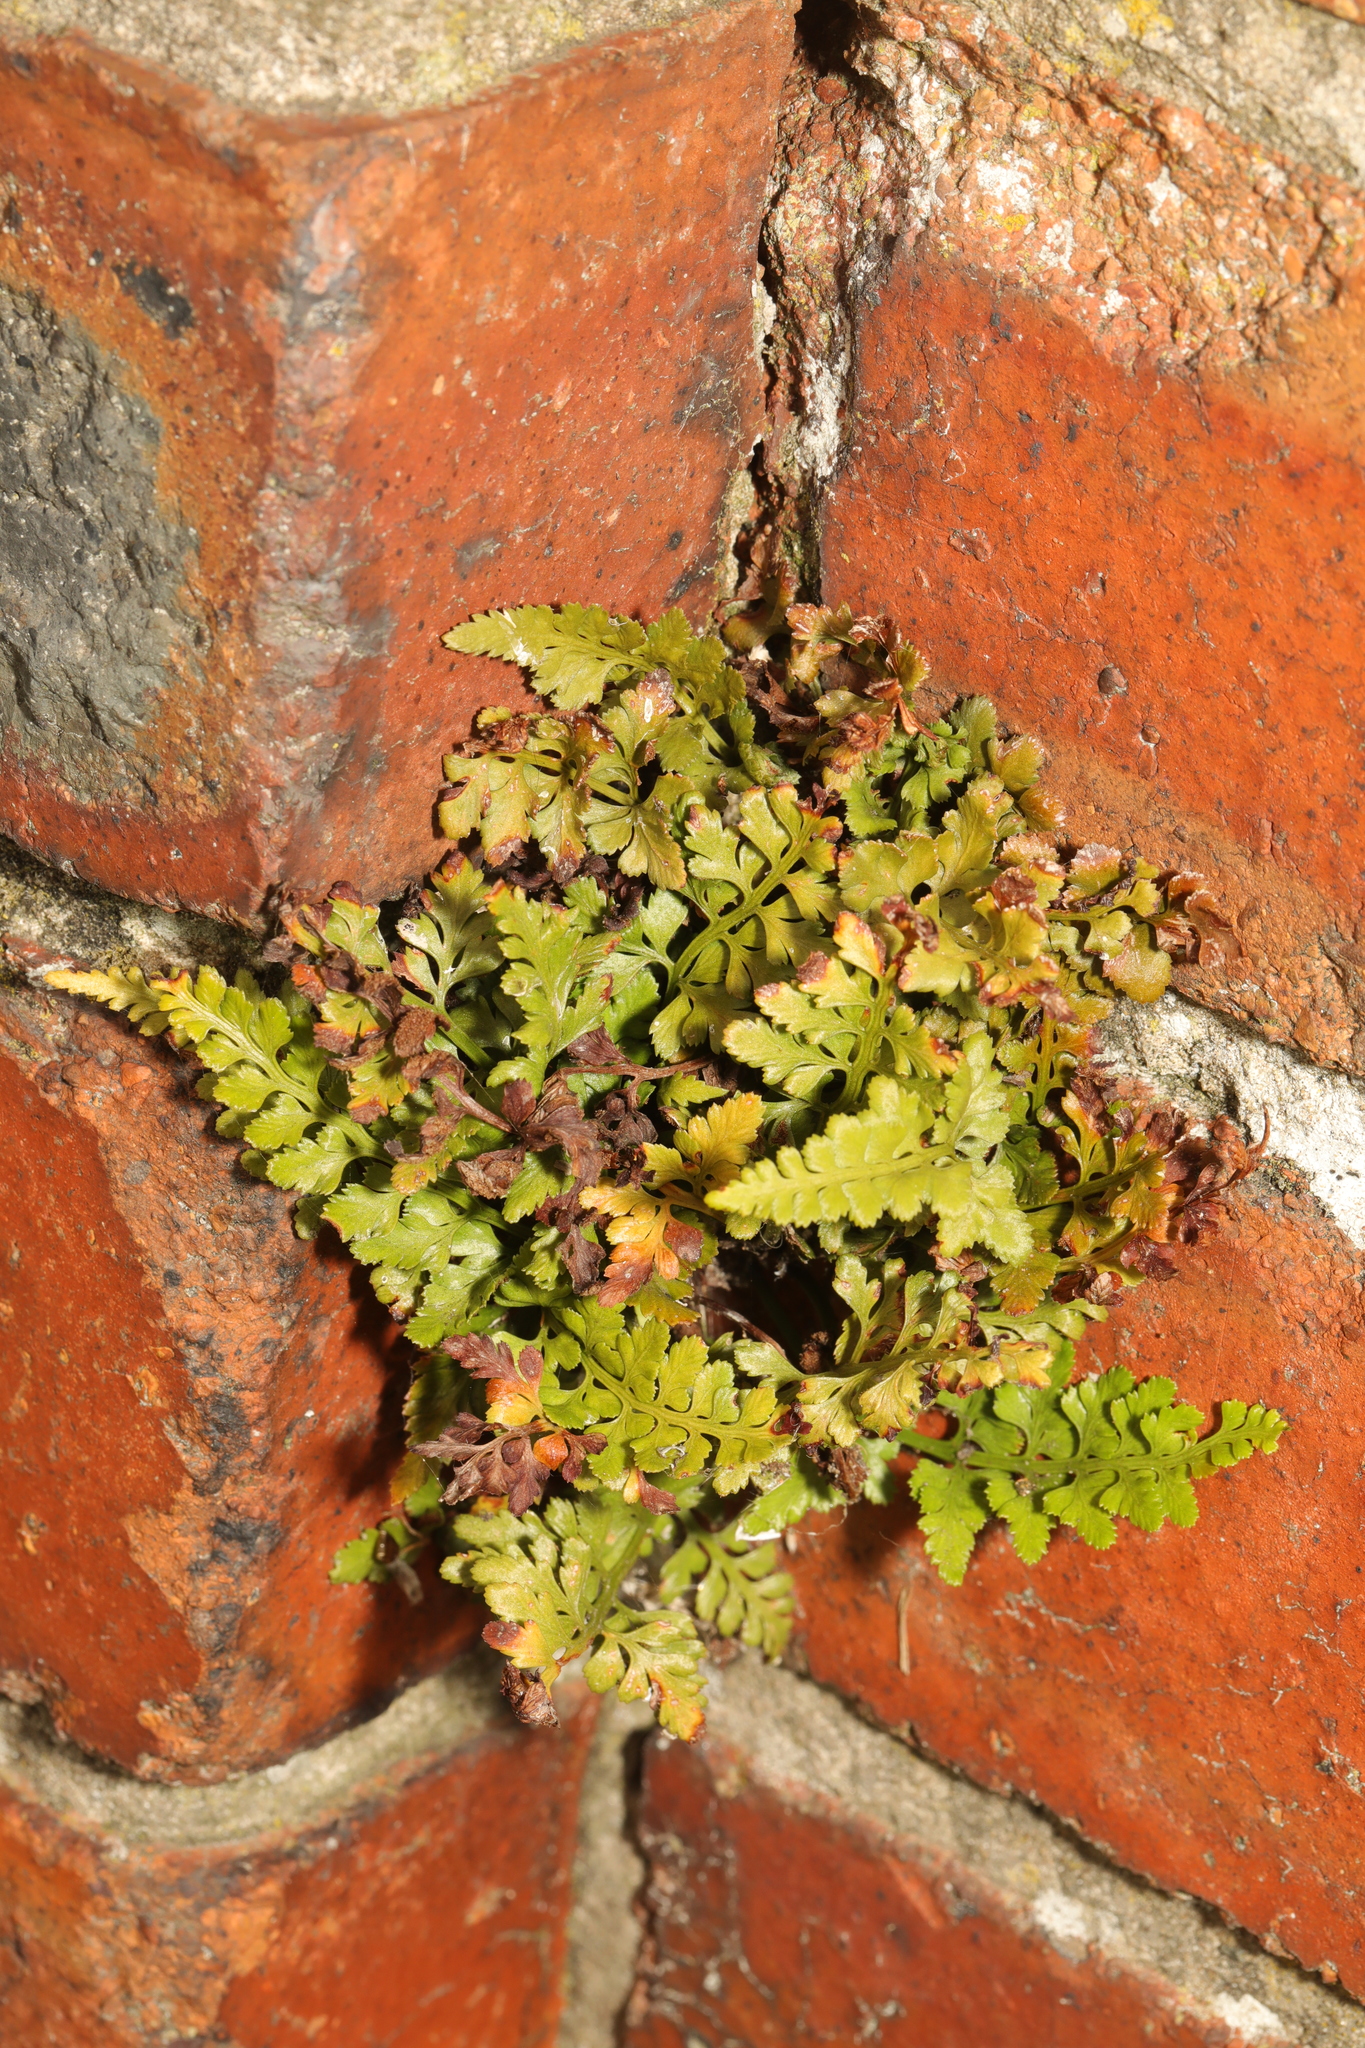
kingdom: Plantae
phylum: Tracheophyta
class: Polypodiopsida
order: Polypodiales
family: Aspleniaceae
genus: Asplenium
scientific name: Asplenium adiantum-nigrum
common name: Black spleenwort
